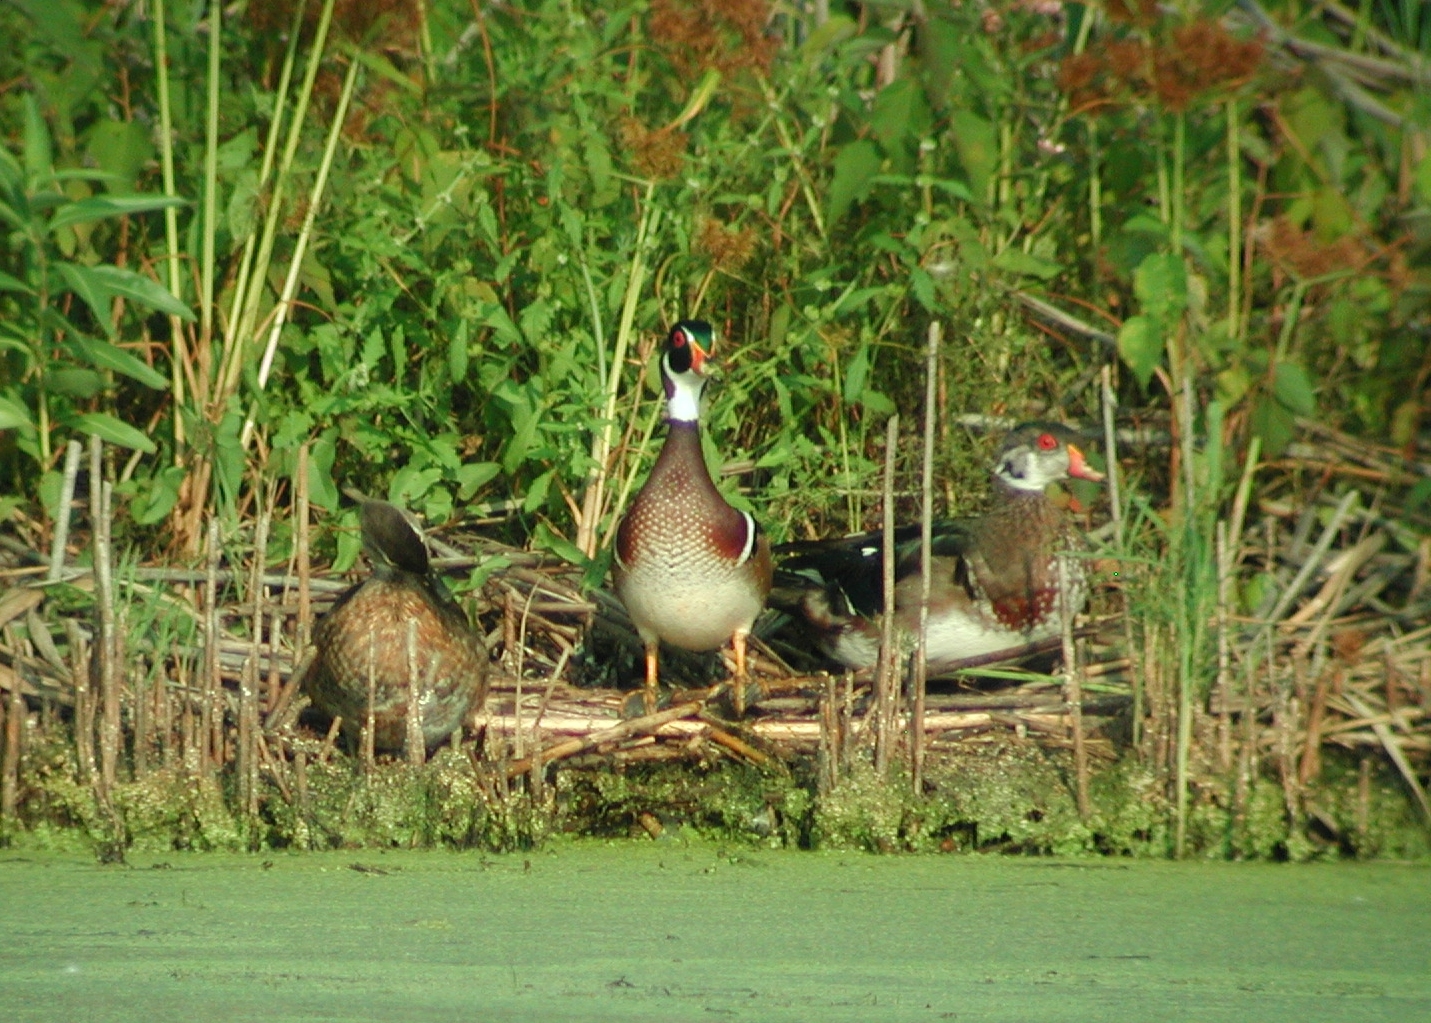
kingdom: Animalia
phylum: Chordata
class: Aves
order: Anseriformes
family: Anatidae
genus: Aix
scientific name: Aix sponsa
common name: Wood duck
